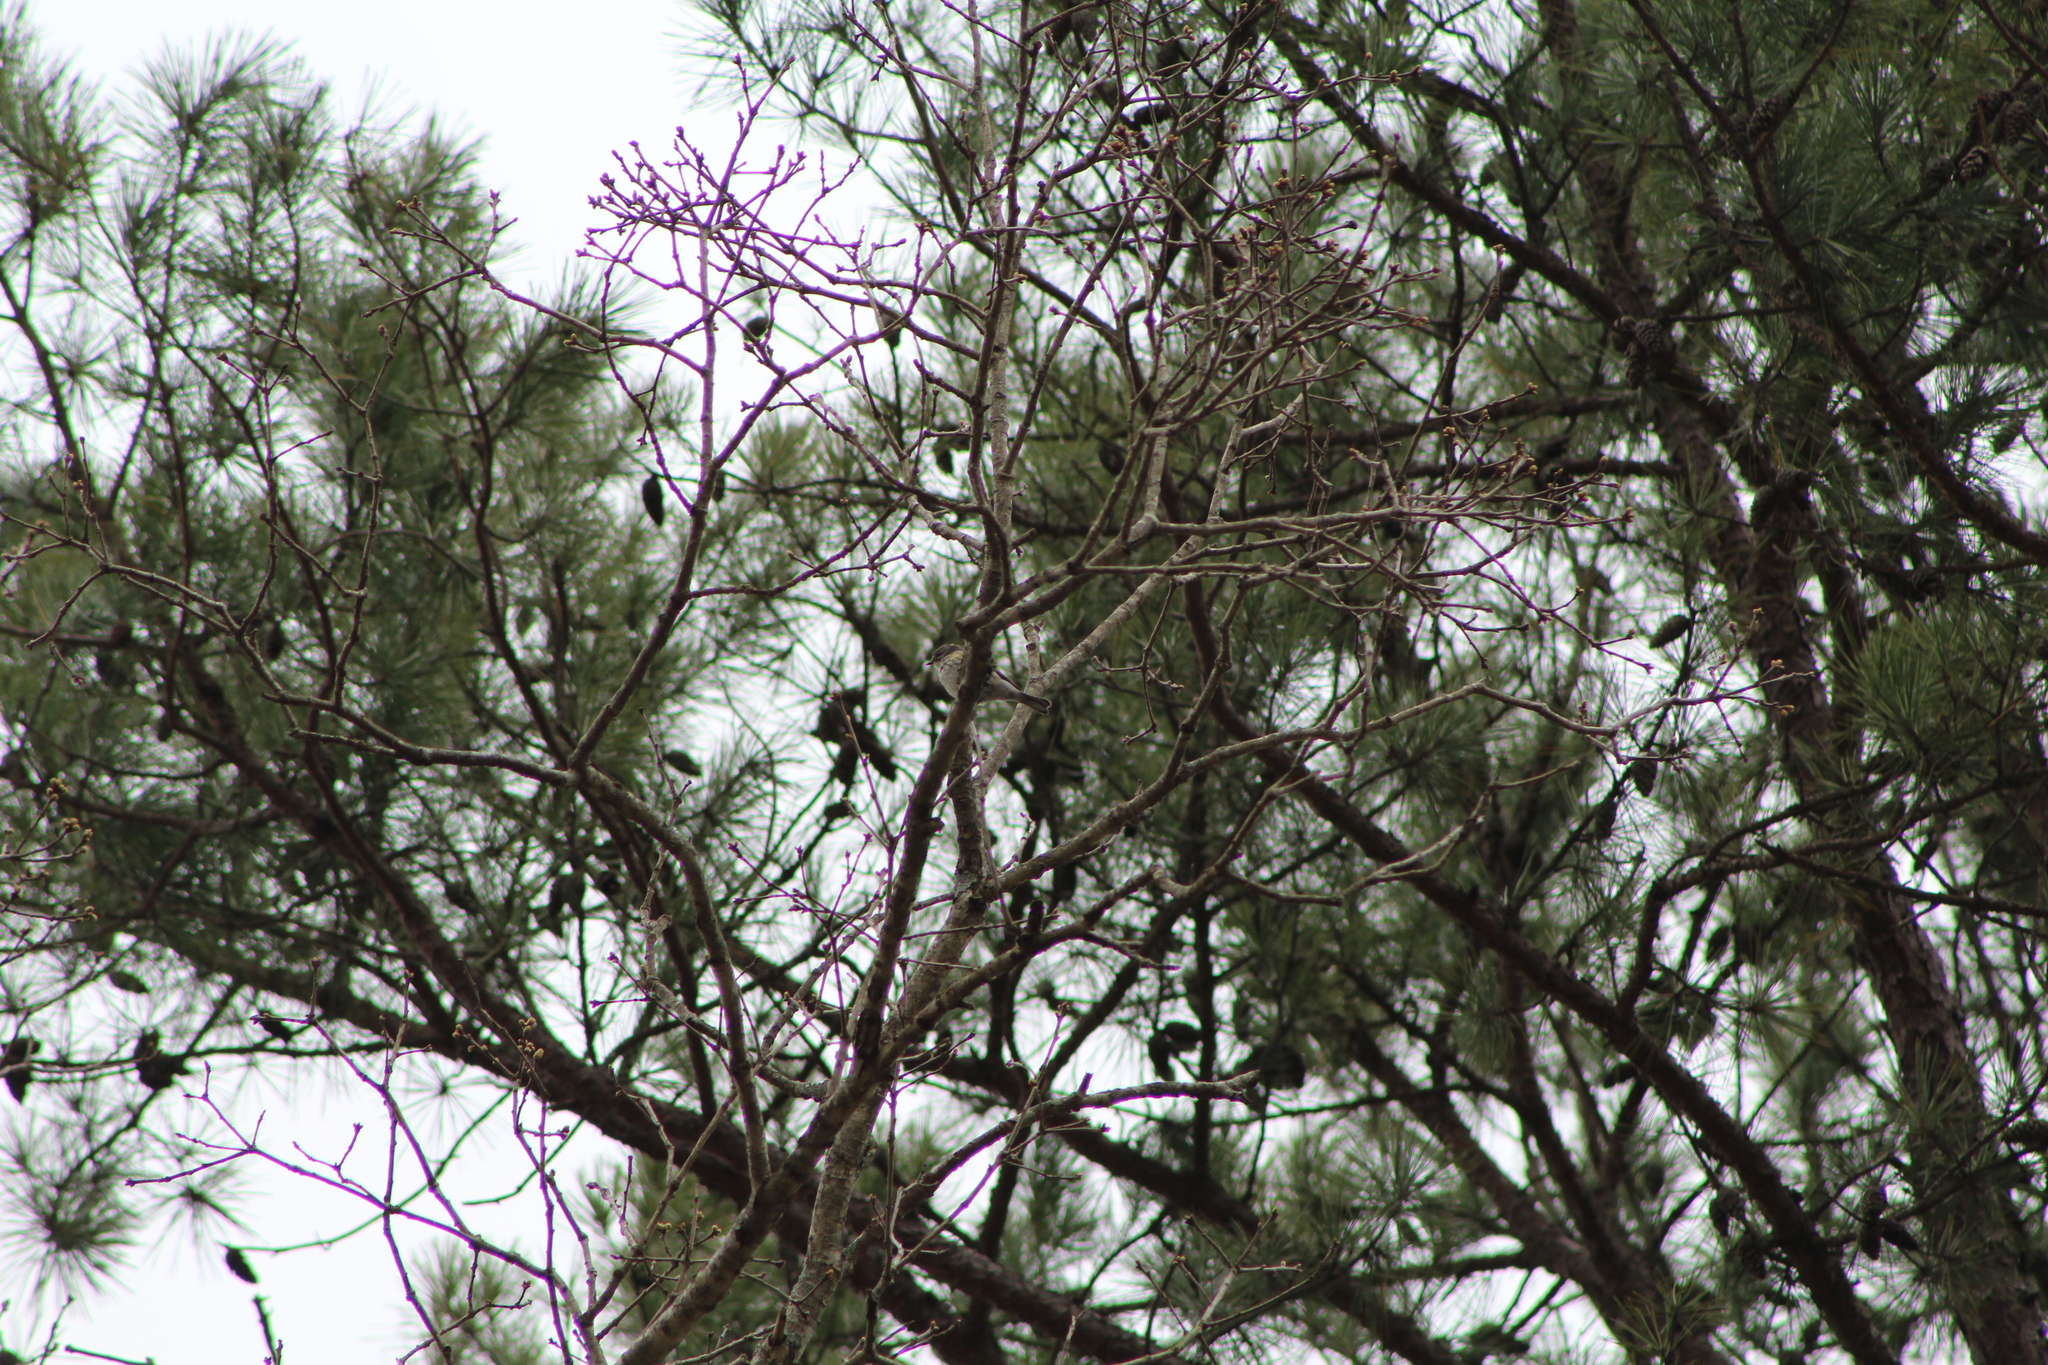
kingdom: Animalia
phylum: Chordata
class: Aves
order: Passeriformes
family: Parulidae
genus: Setophaga
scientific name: Setophaga coronata
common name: Myrtle warbler
